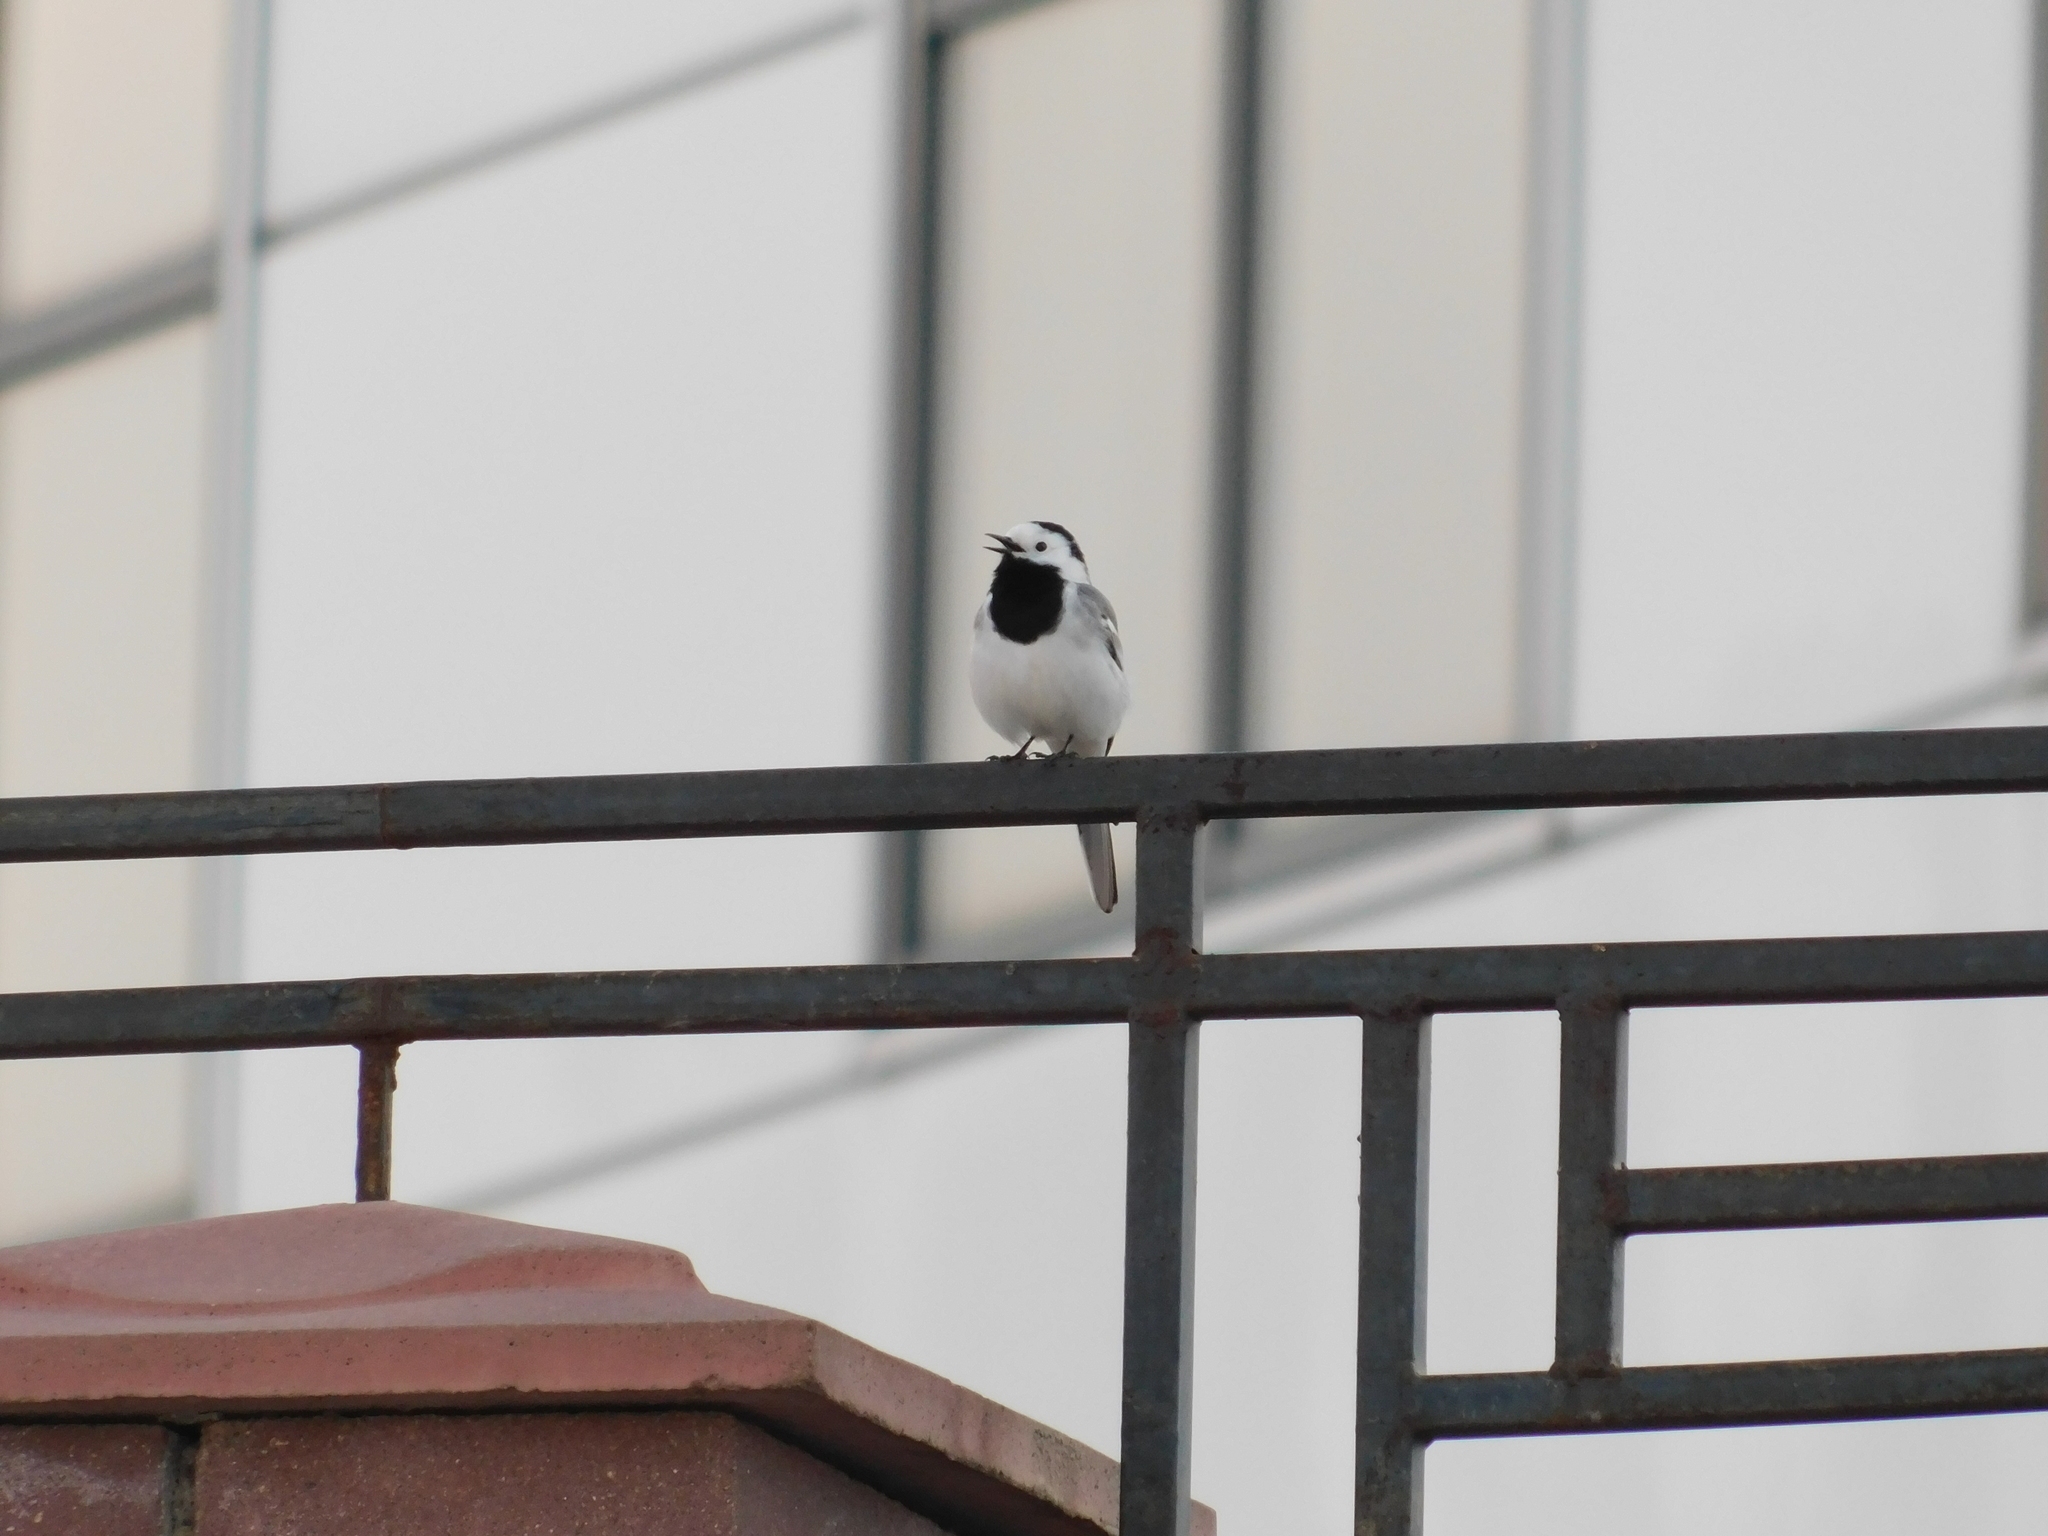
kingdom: Animalia
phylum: Chordata
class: Aves
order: Passeriformes
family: Motacillidae
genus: Motacilla
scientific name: Motacilla alba
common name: White wagtail
